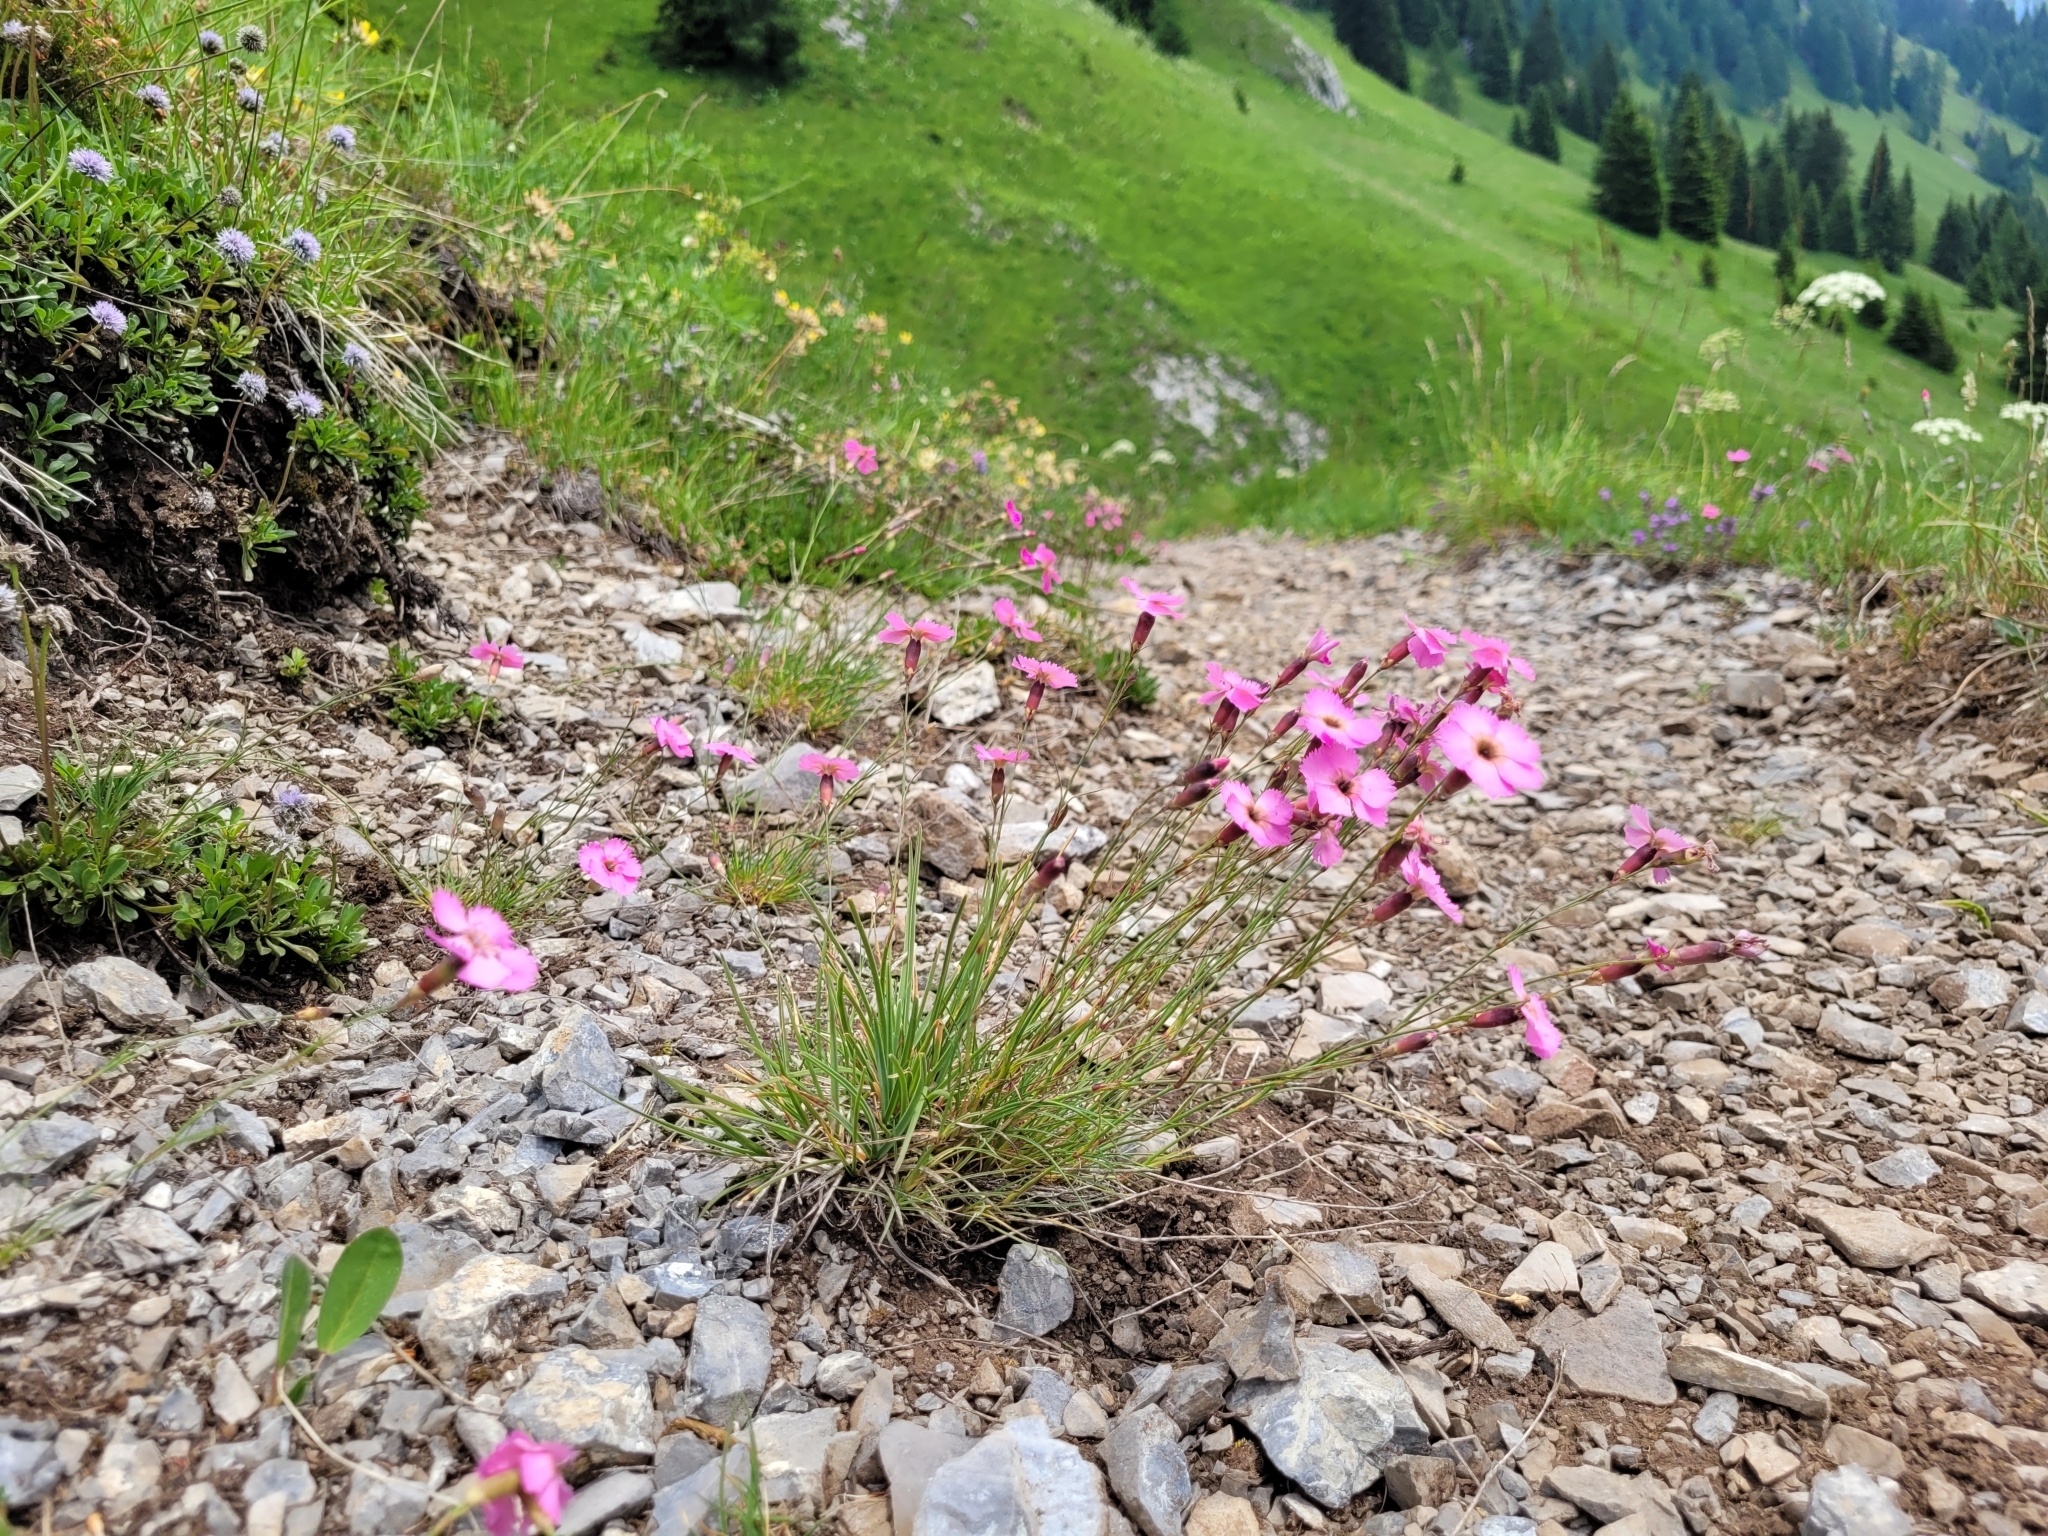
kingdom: Plantae
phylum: Tracheophyta
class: Magnoliopsida
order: Caryophyllales
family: Caryophyllaceae
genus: Dianthus
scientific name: Dianthus sylvestris
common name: Wood pink
